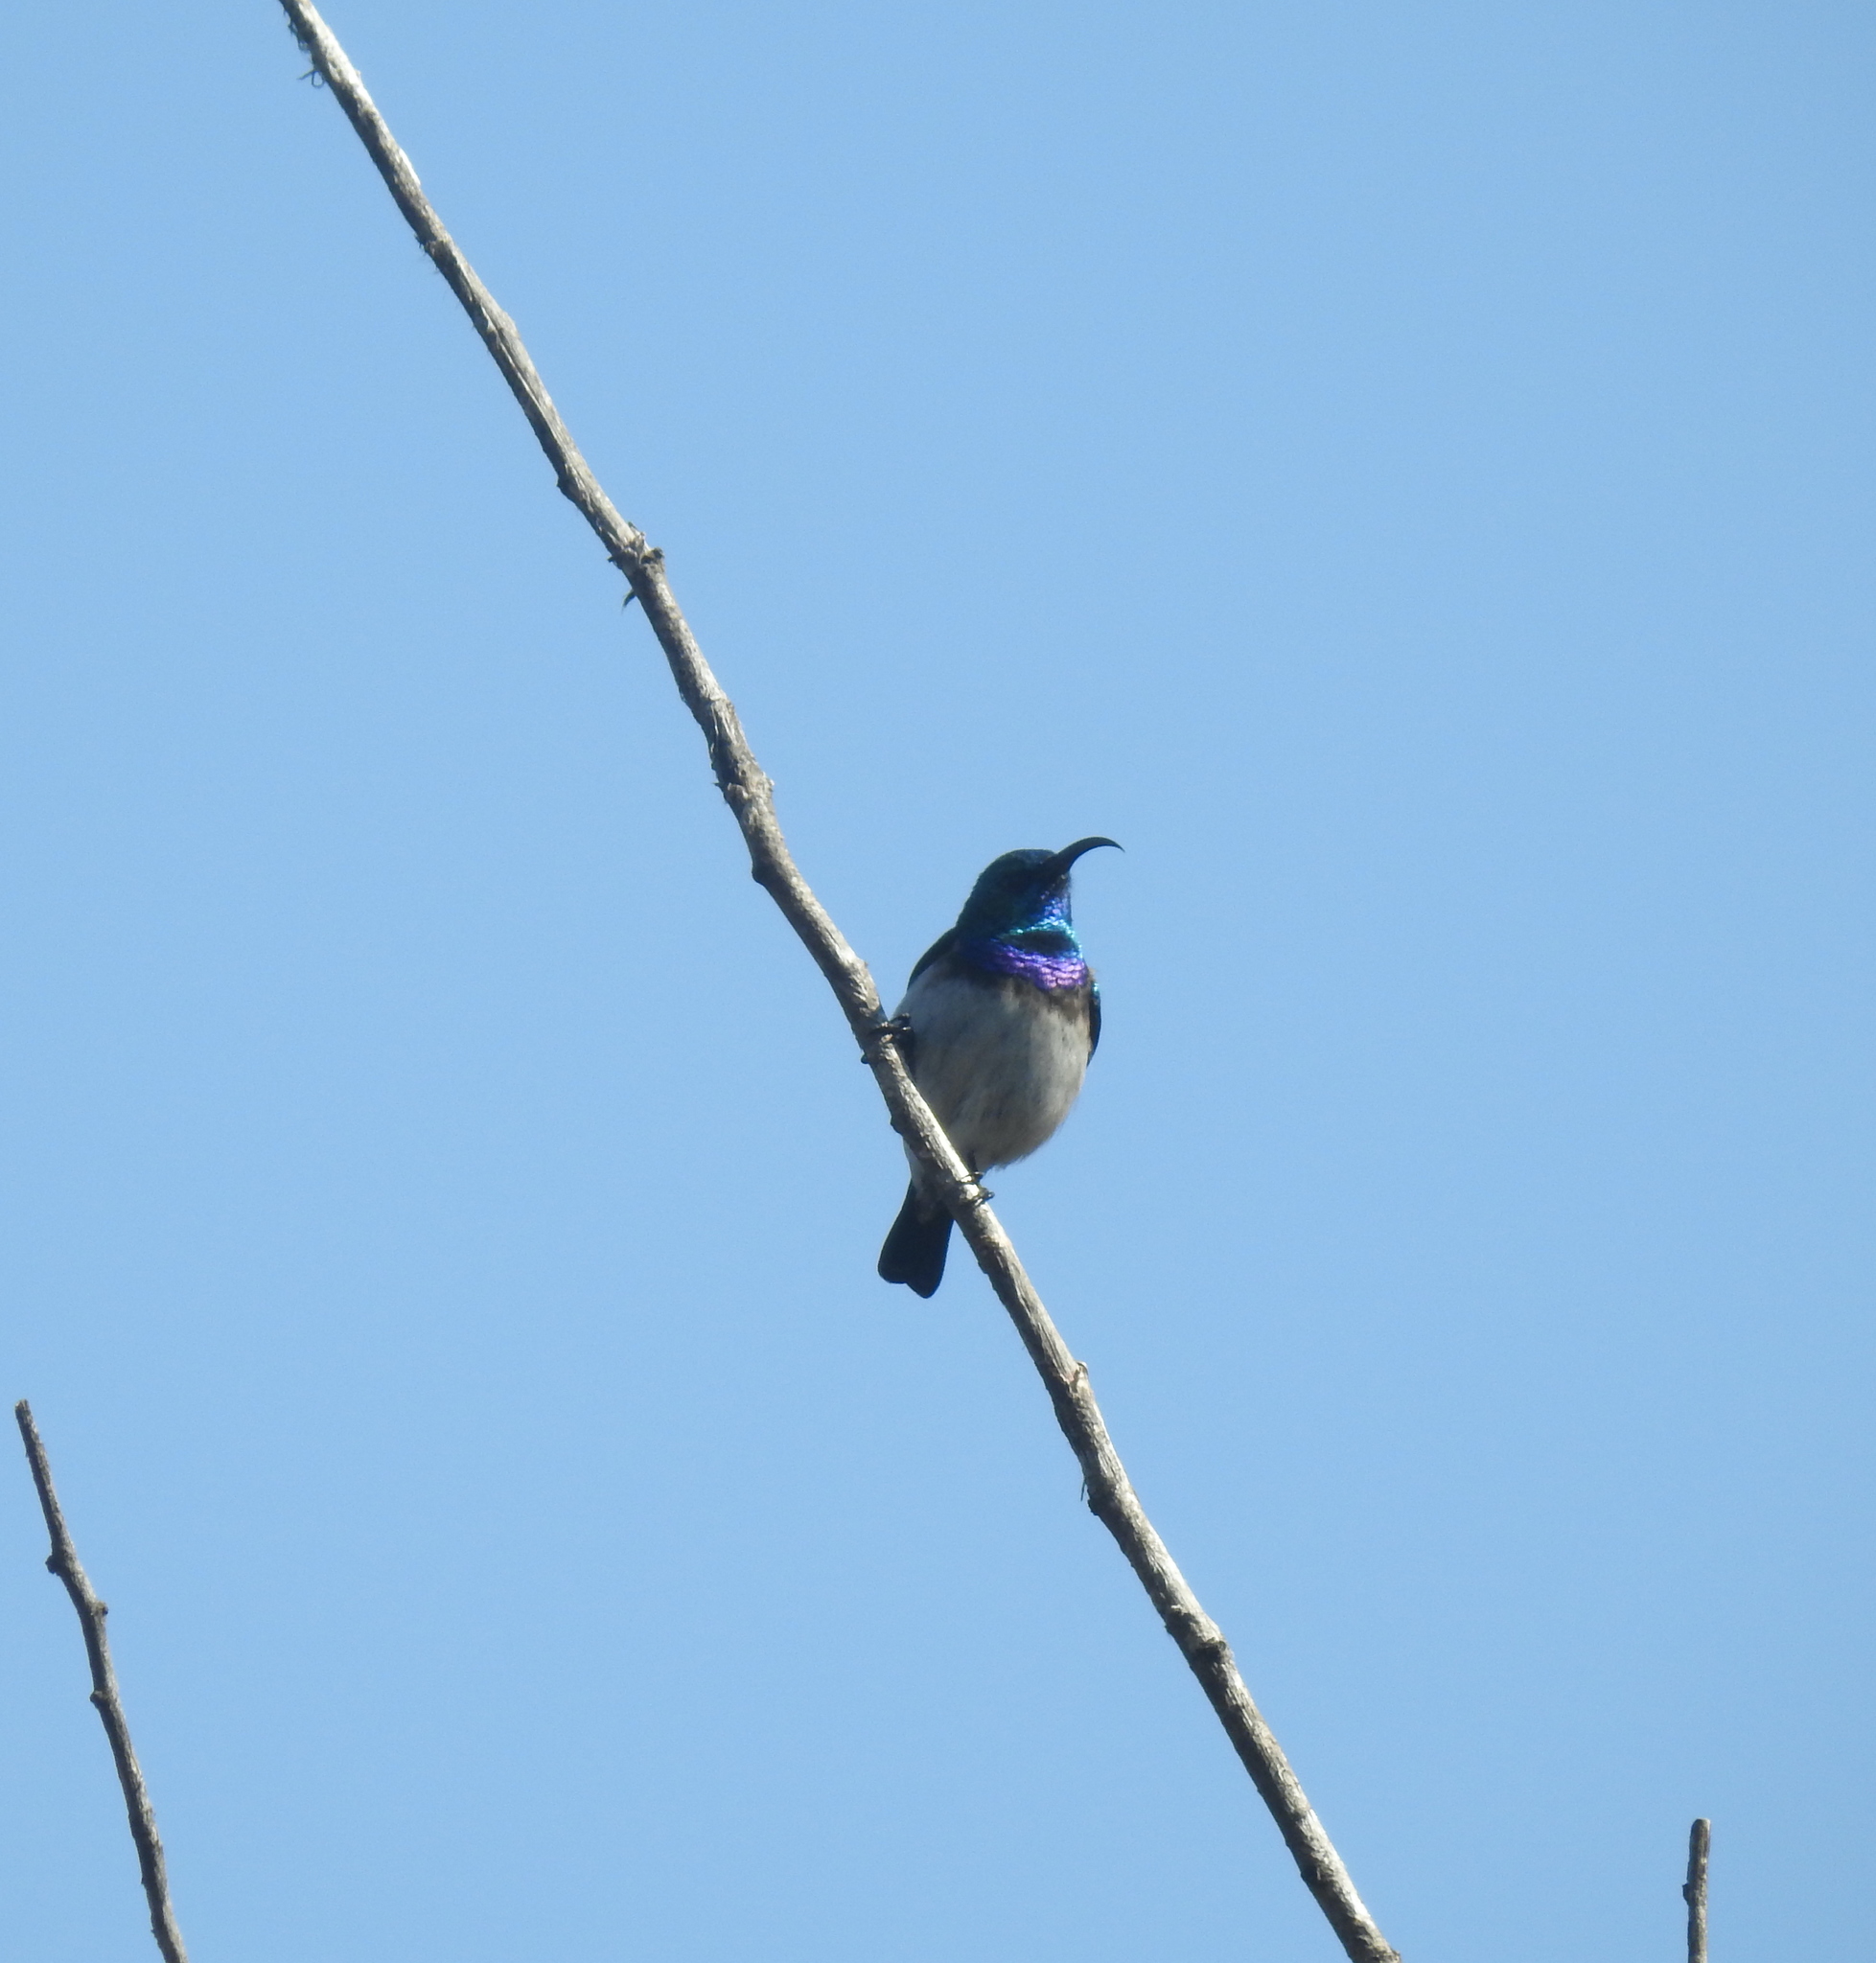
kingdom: Animalia
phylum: Chordata
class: Aves
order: Passeriformes
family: Nectariniidae
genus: Cinnyris
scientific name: Cinnyris talatala
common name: White-bellied sunbird
